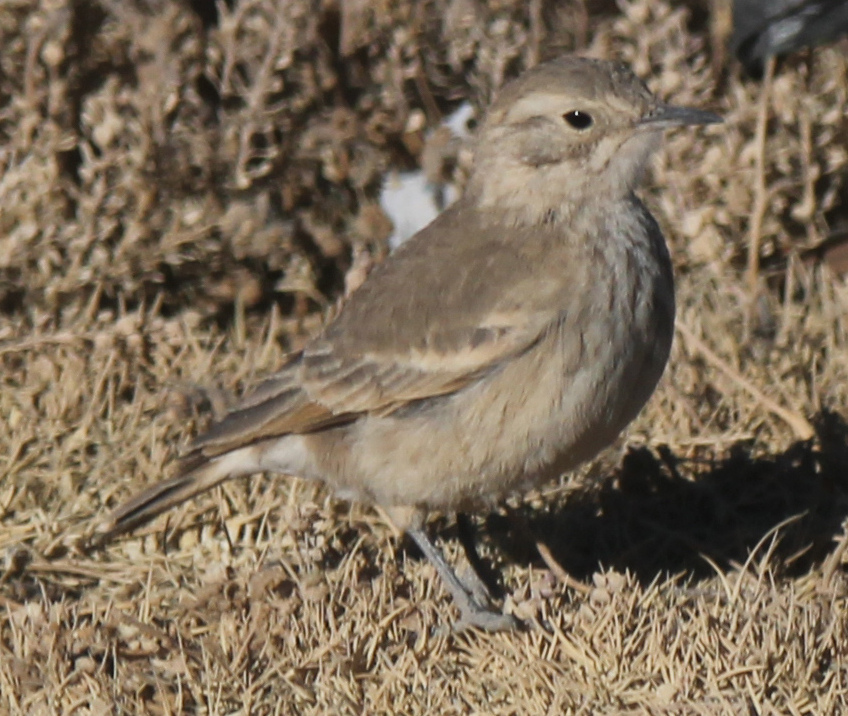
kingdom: Animalia
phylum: Chordata
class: Aves
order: Passeriformes
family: Furnariidae
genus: Geositta
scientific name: Geositta cunicularia
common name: Common miner
